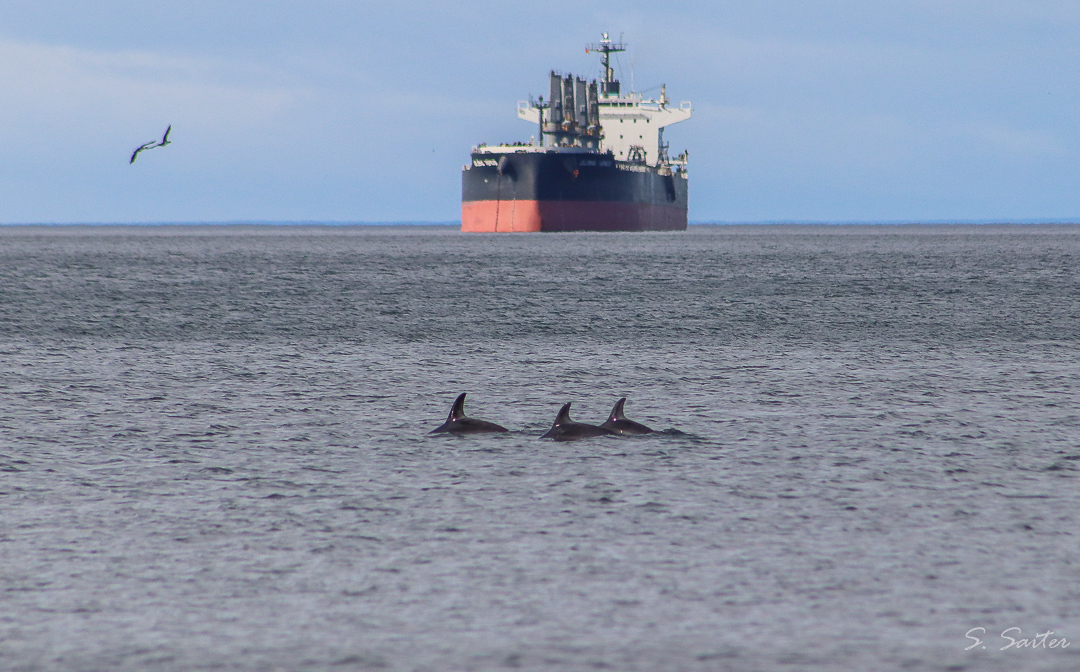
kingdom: Animalia
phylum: Chordata
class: Mammalia
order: Cetacea
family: Delphinidae
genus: Lagenorhynchus
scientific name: Lagenorhynchus australis
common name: Peale's dolphin
